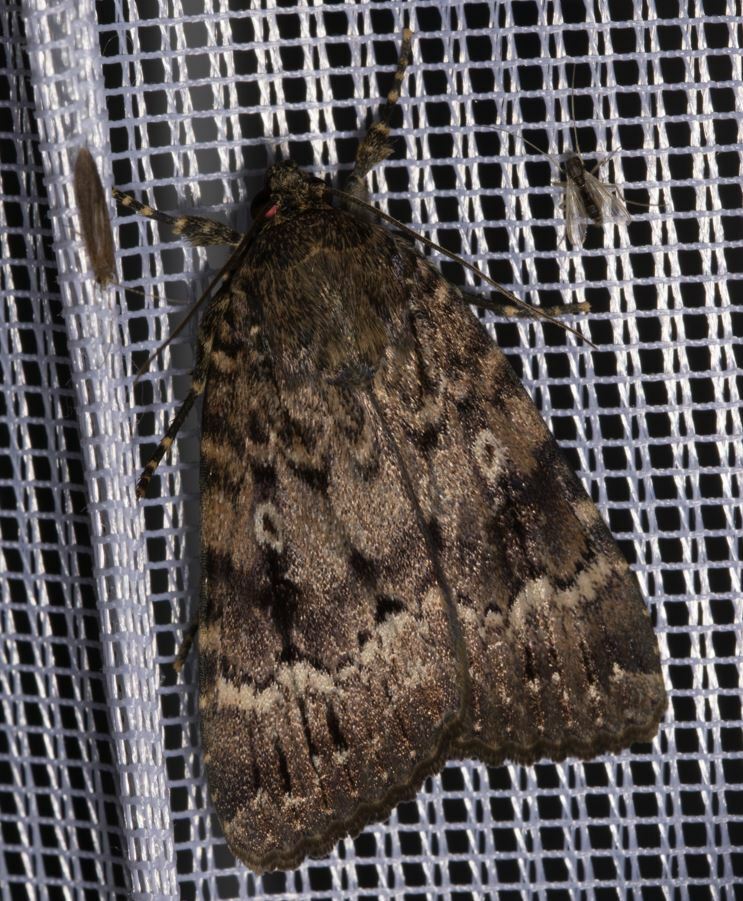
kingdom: Animalia
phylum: Arthropoda
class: Insecta
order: Lepidoptera
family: Noctuidae
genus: Amphipyra
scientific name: Amphipyra berbera
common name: Svensson's copper underwing
